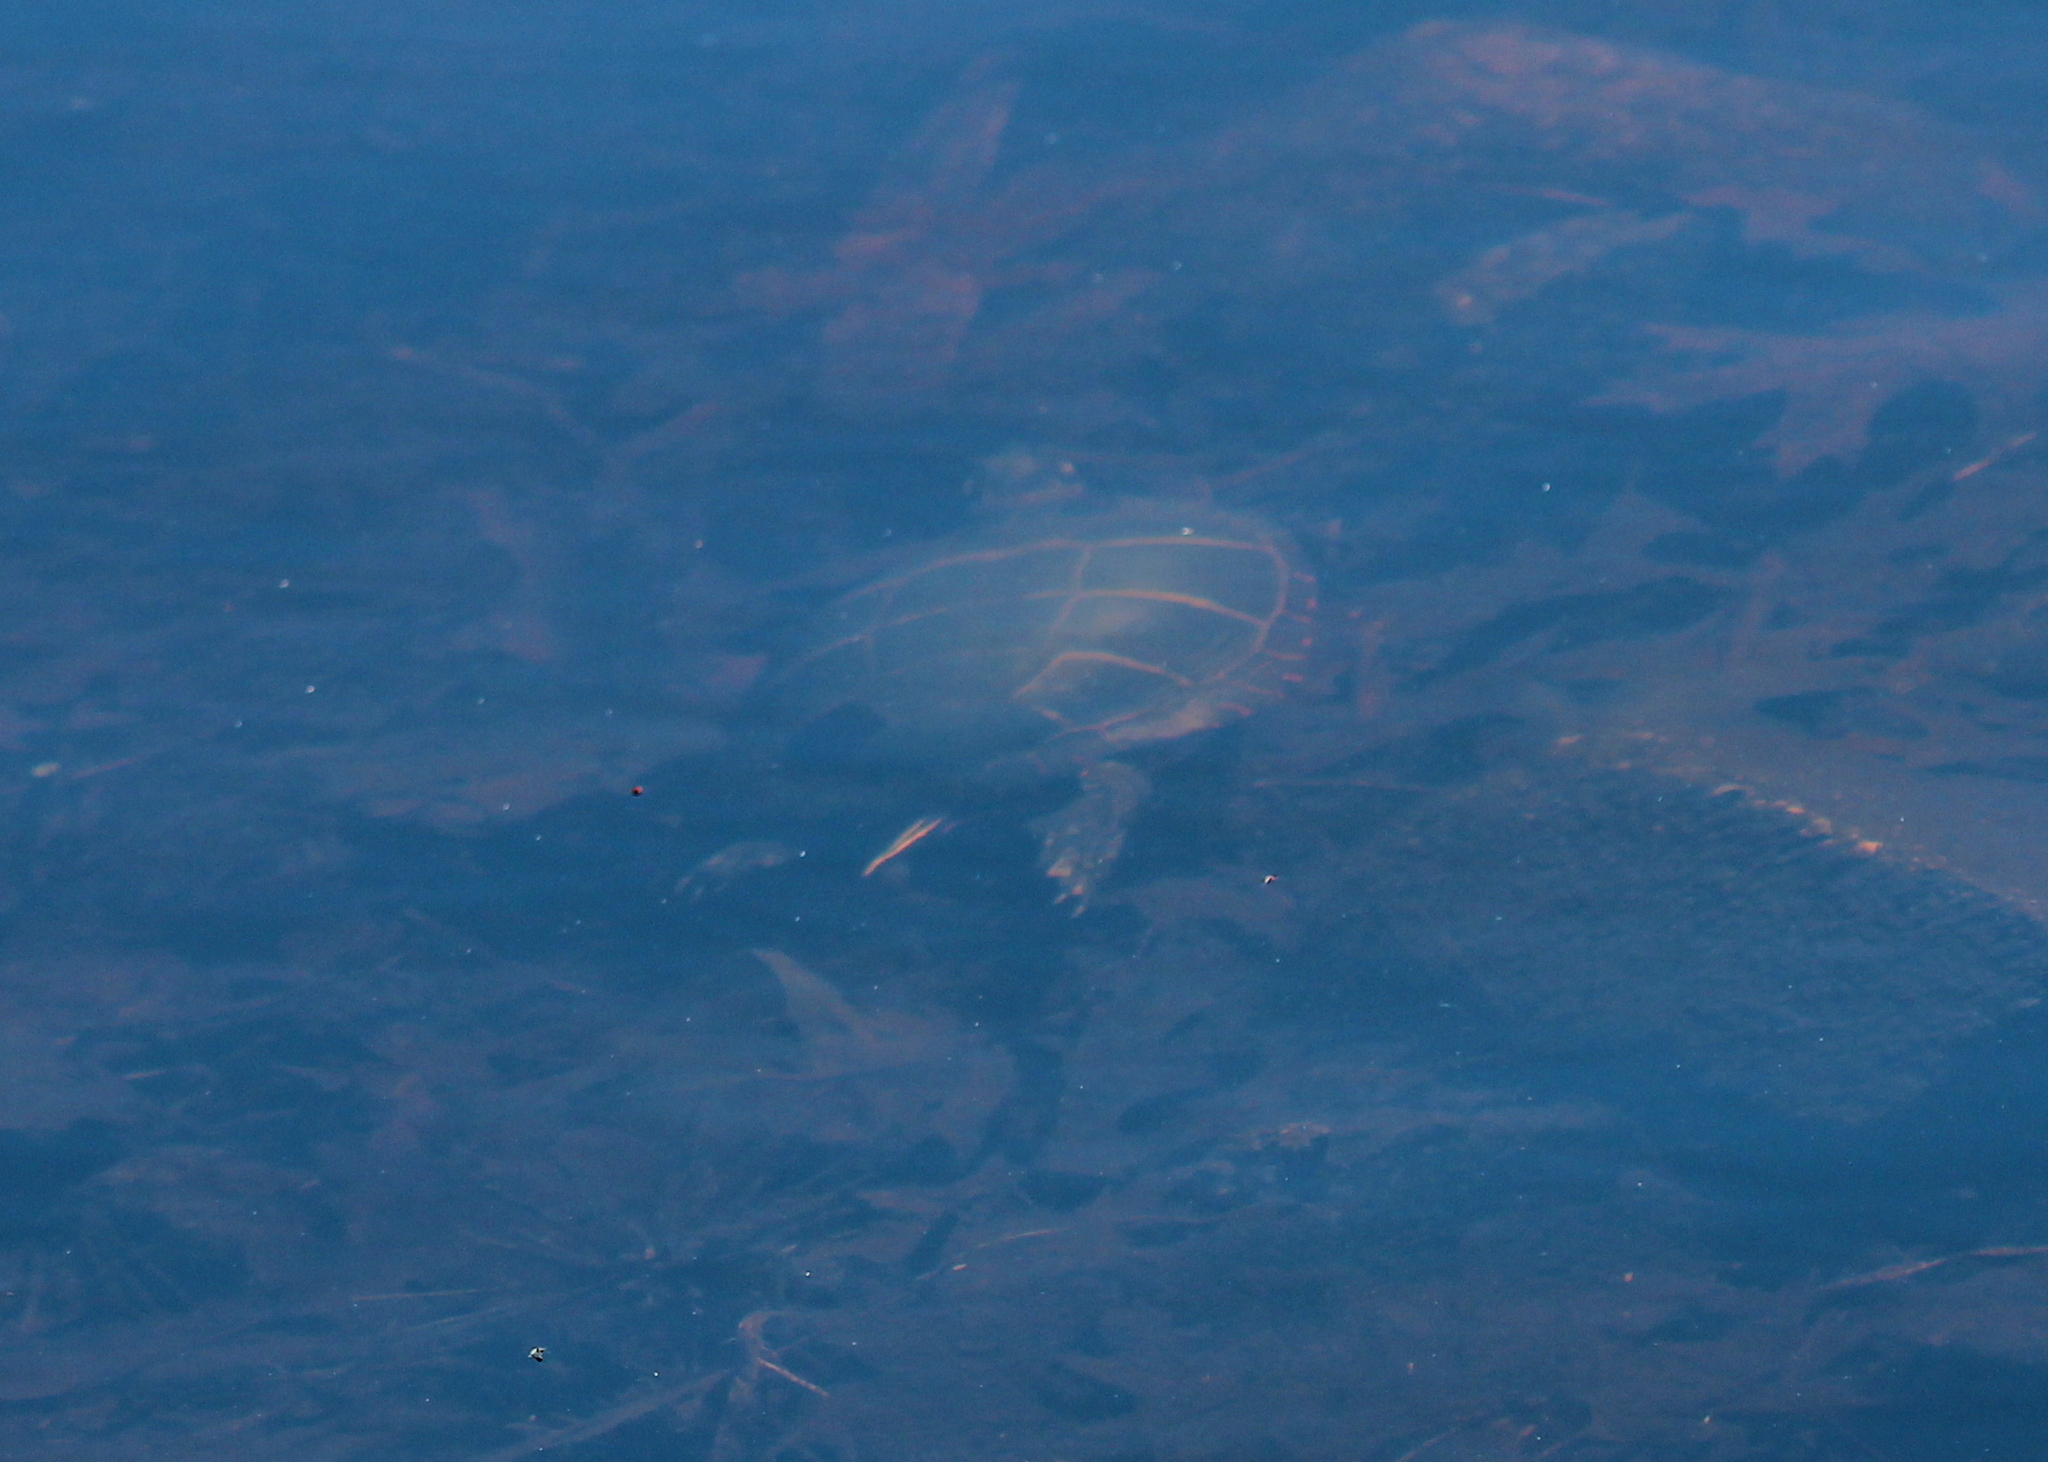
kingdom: Animalia
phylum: Chordata
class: Testudines
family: Emydidae
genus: Chrysemys
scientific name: Chrysemys picta
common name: Painted turtle
